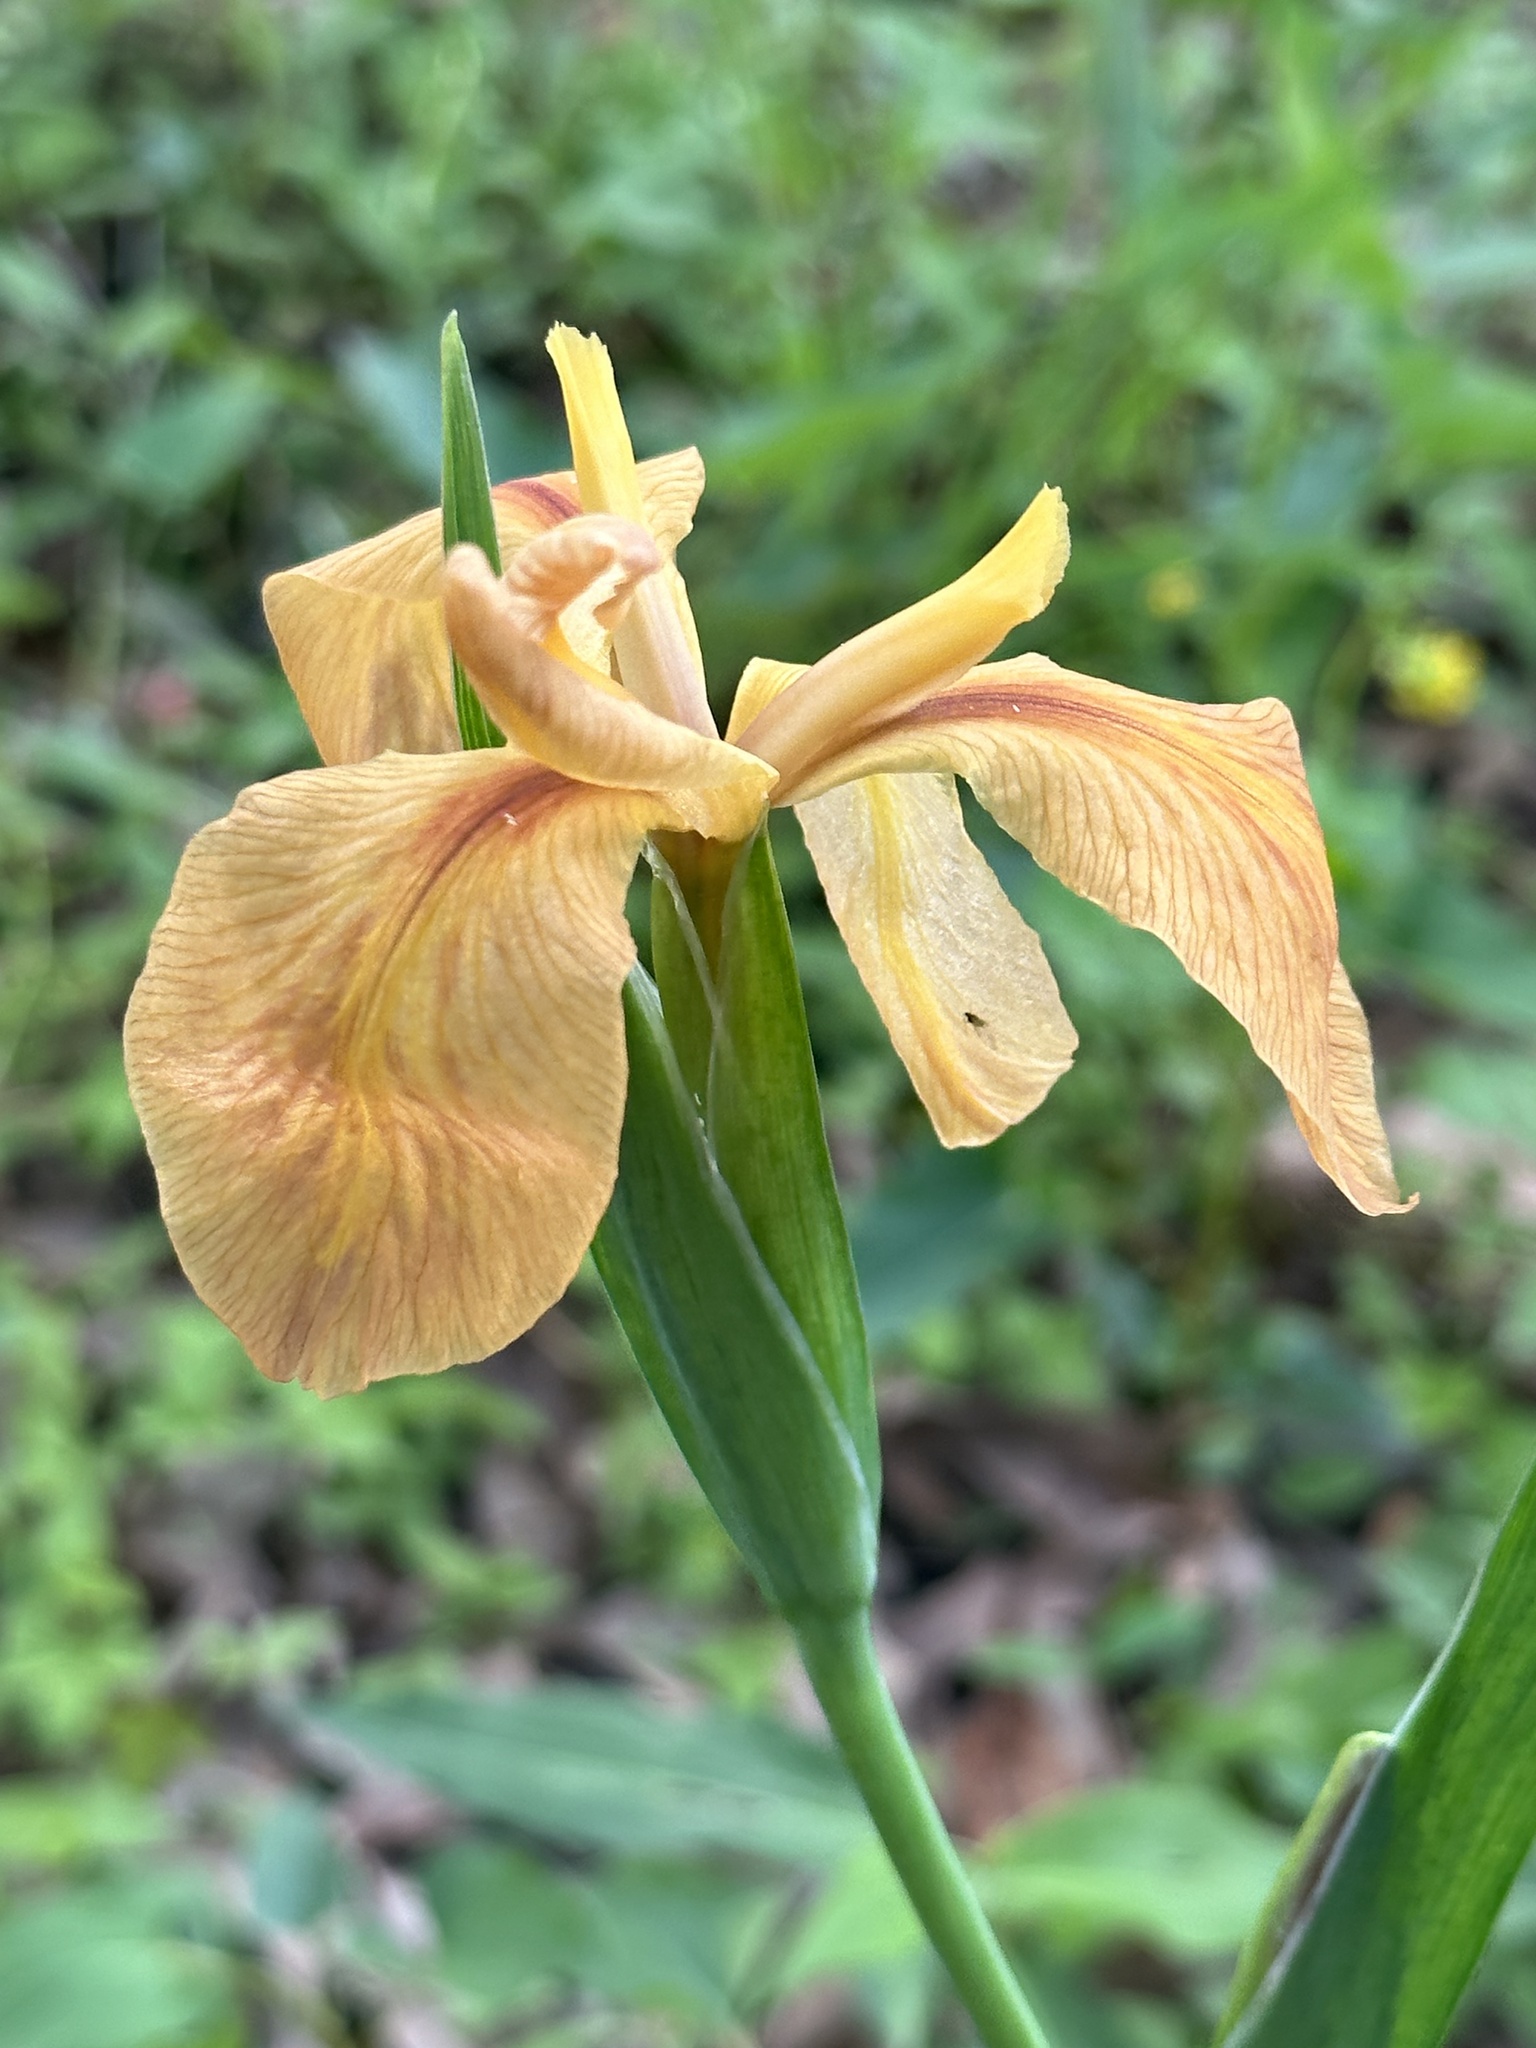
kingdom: Plantae
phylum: Tracheophyta
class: Liliopsida
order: Asparagales
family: Iridaceae
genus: Iris
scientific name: Iris fulva
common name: Copper iris
